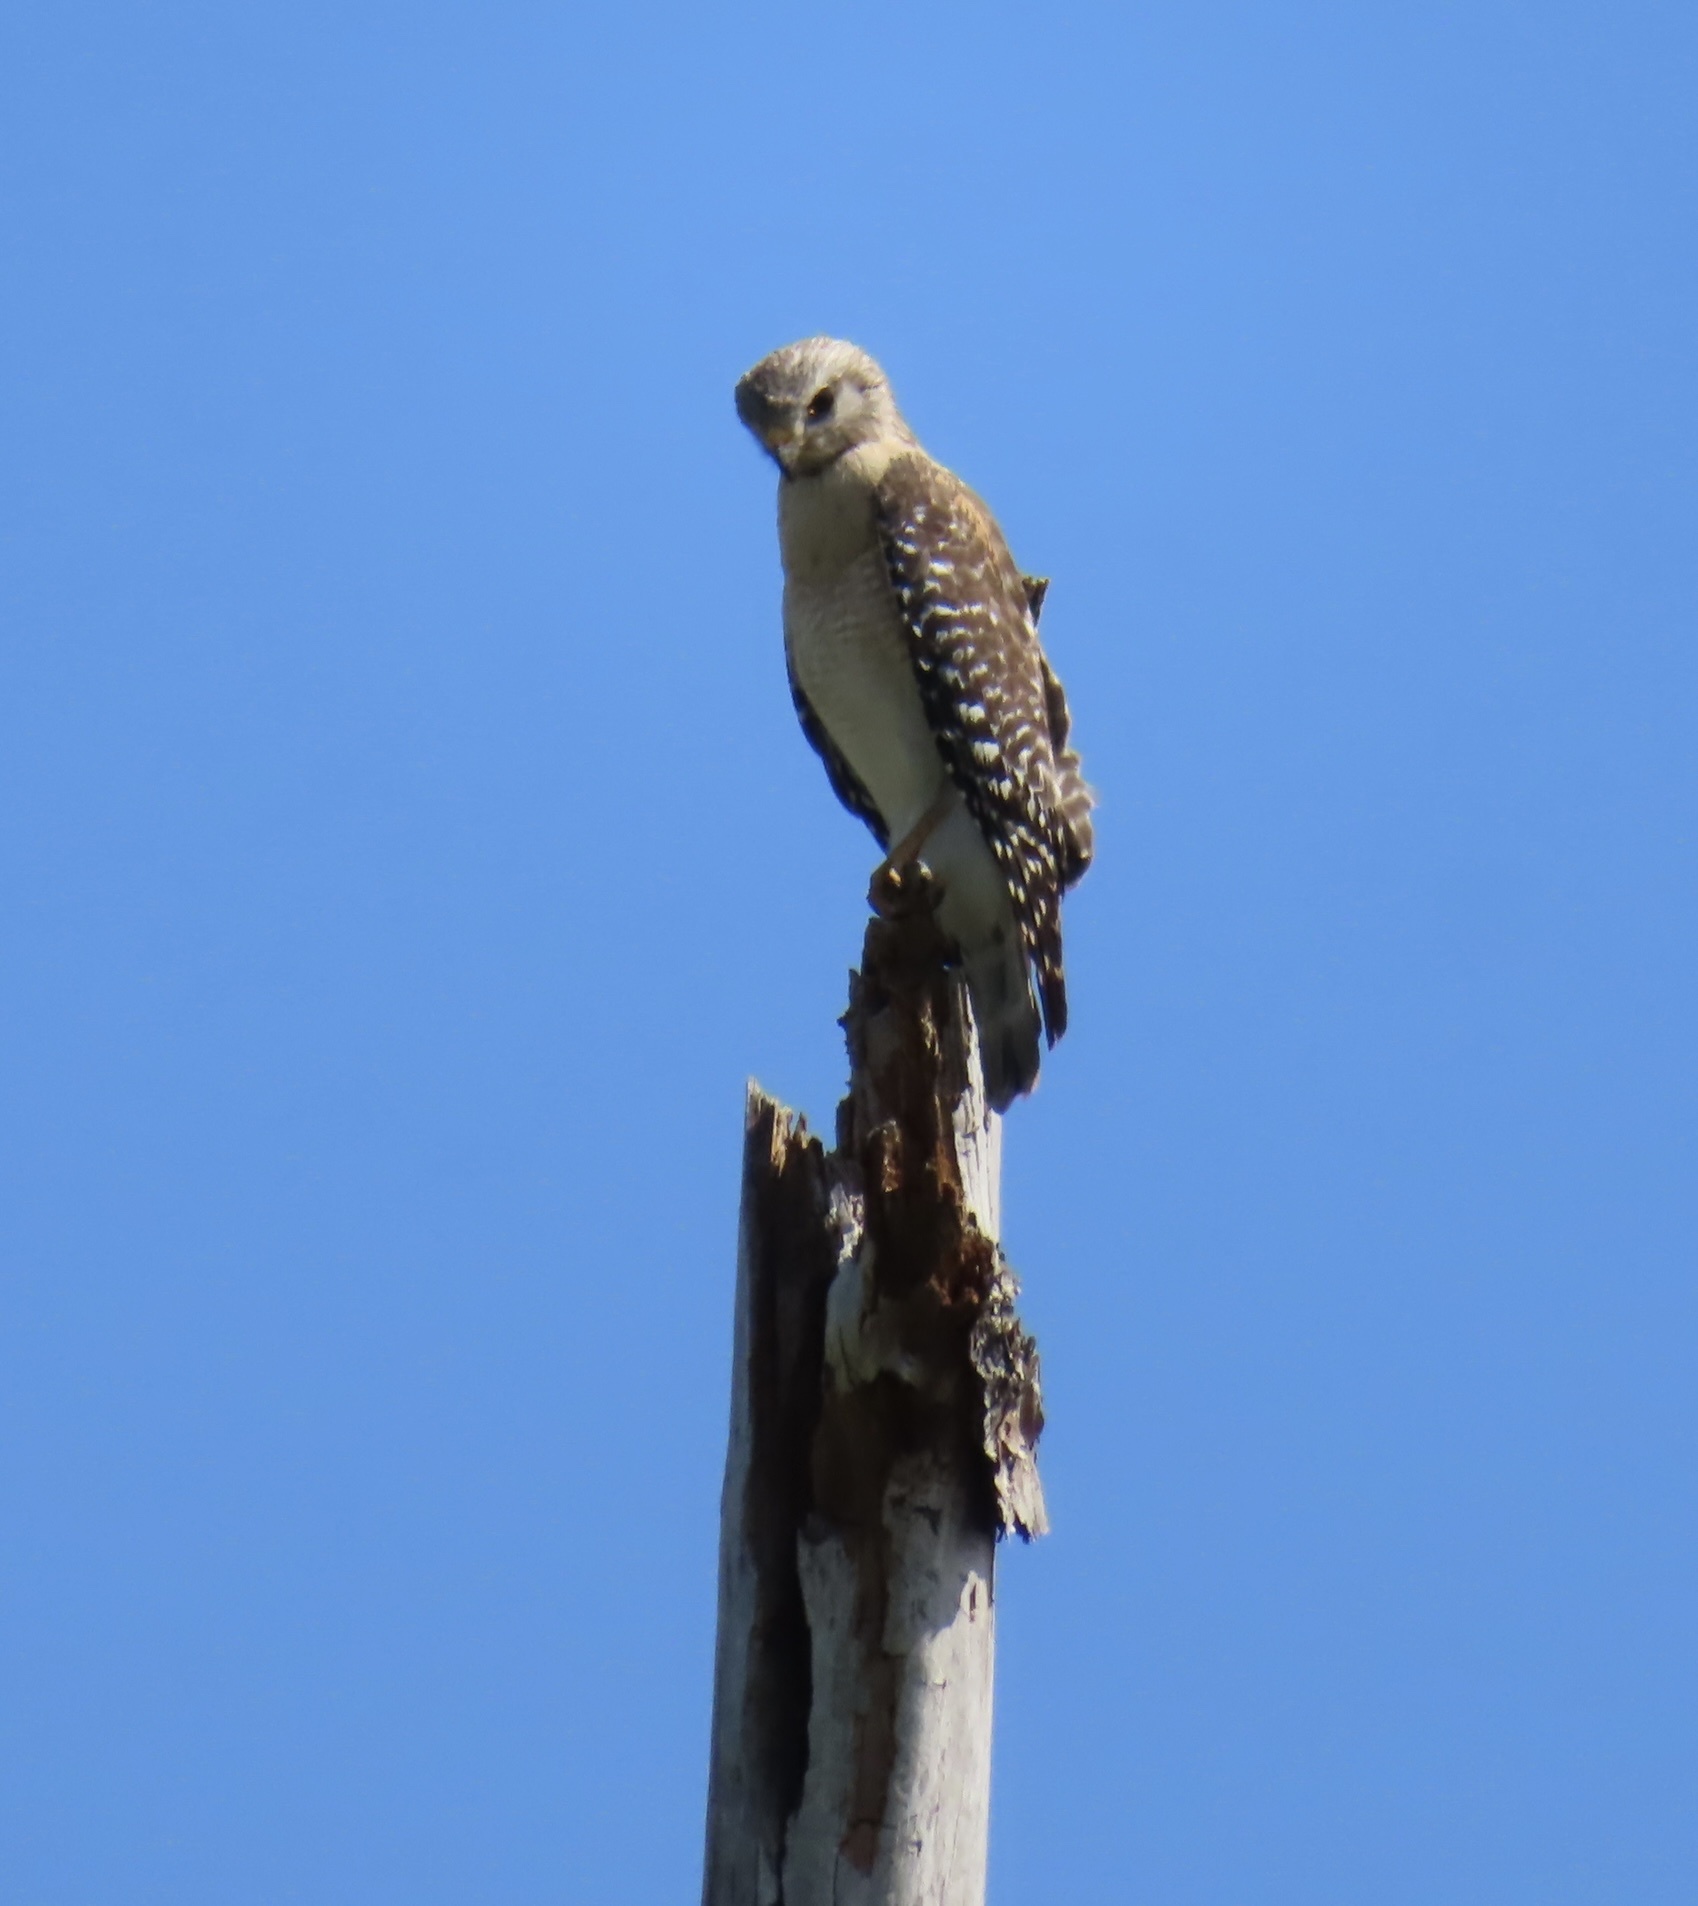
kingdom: Animalia
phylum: Chordata
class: Aves
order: Accipitriformes
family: Accipitridae
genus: Buteo
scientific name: Buteo lineatus
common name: Red-shouldered hawk
